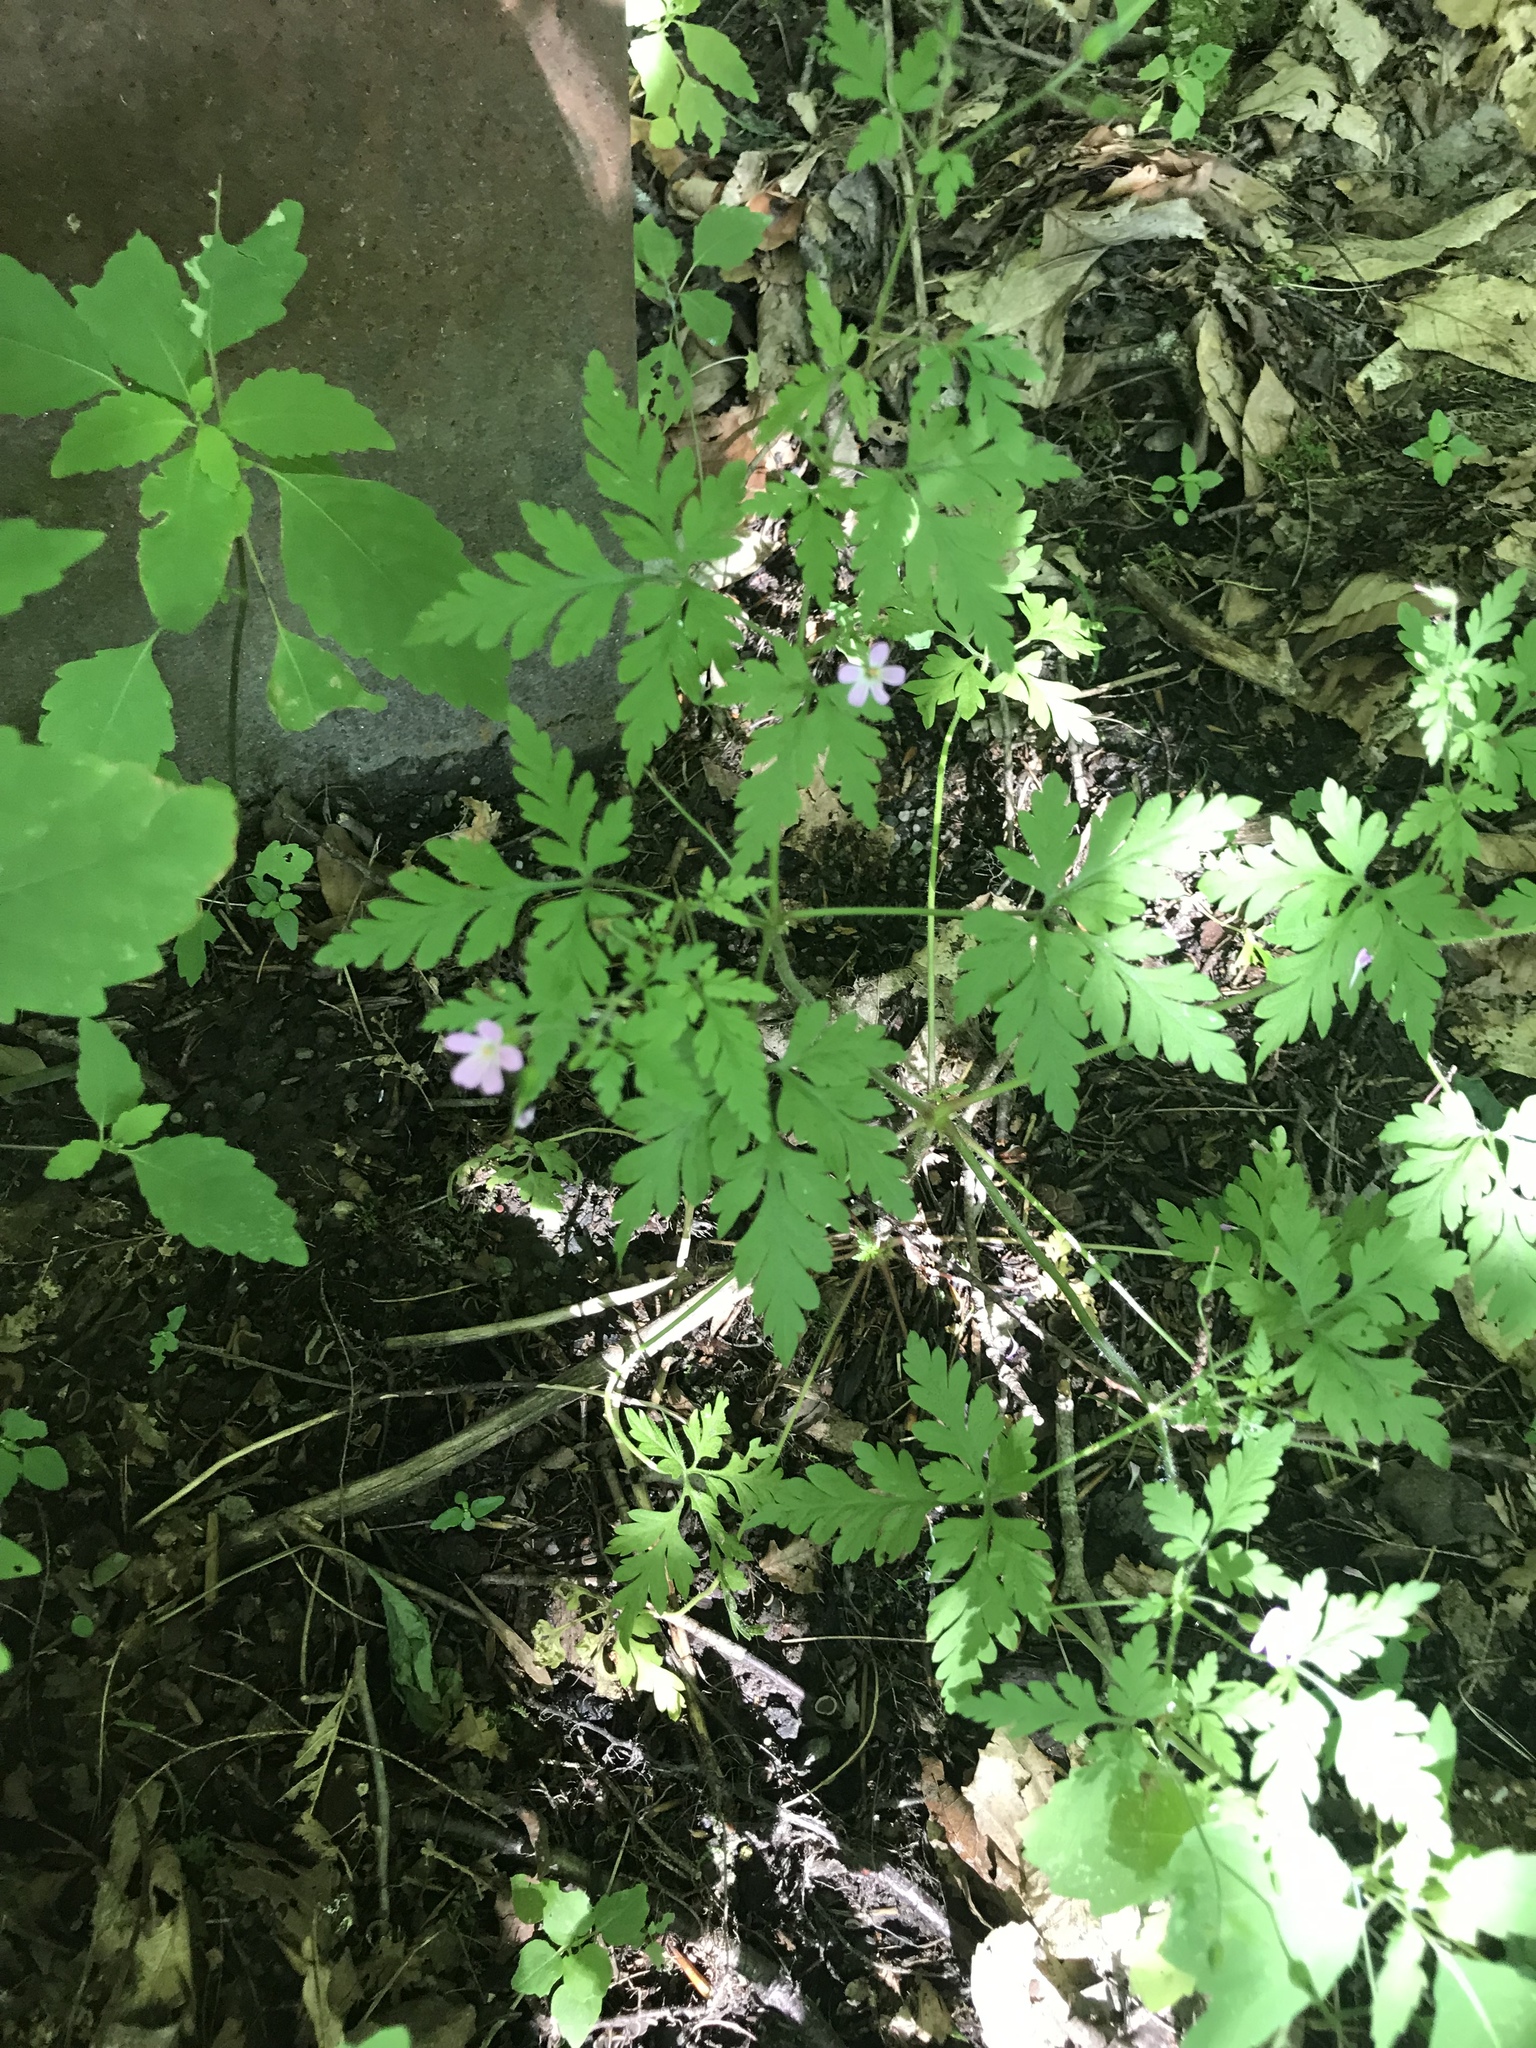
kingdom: Plantae
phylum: Tracheophyta
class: Magnoliopsida
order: Geraniales
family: Geraniaceae
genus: Geranium
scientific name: Geranium robertianum
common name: Herb-robert
